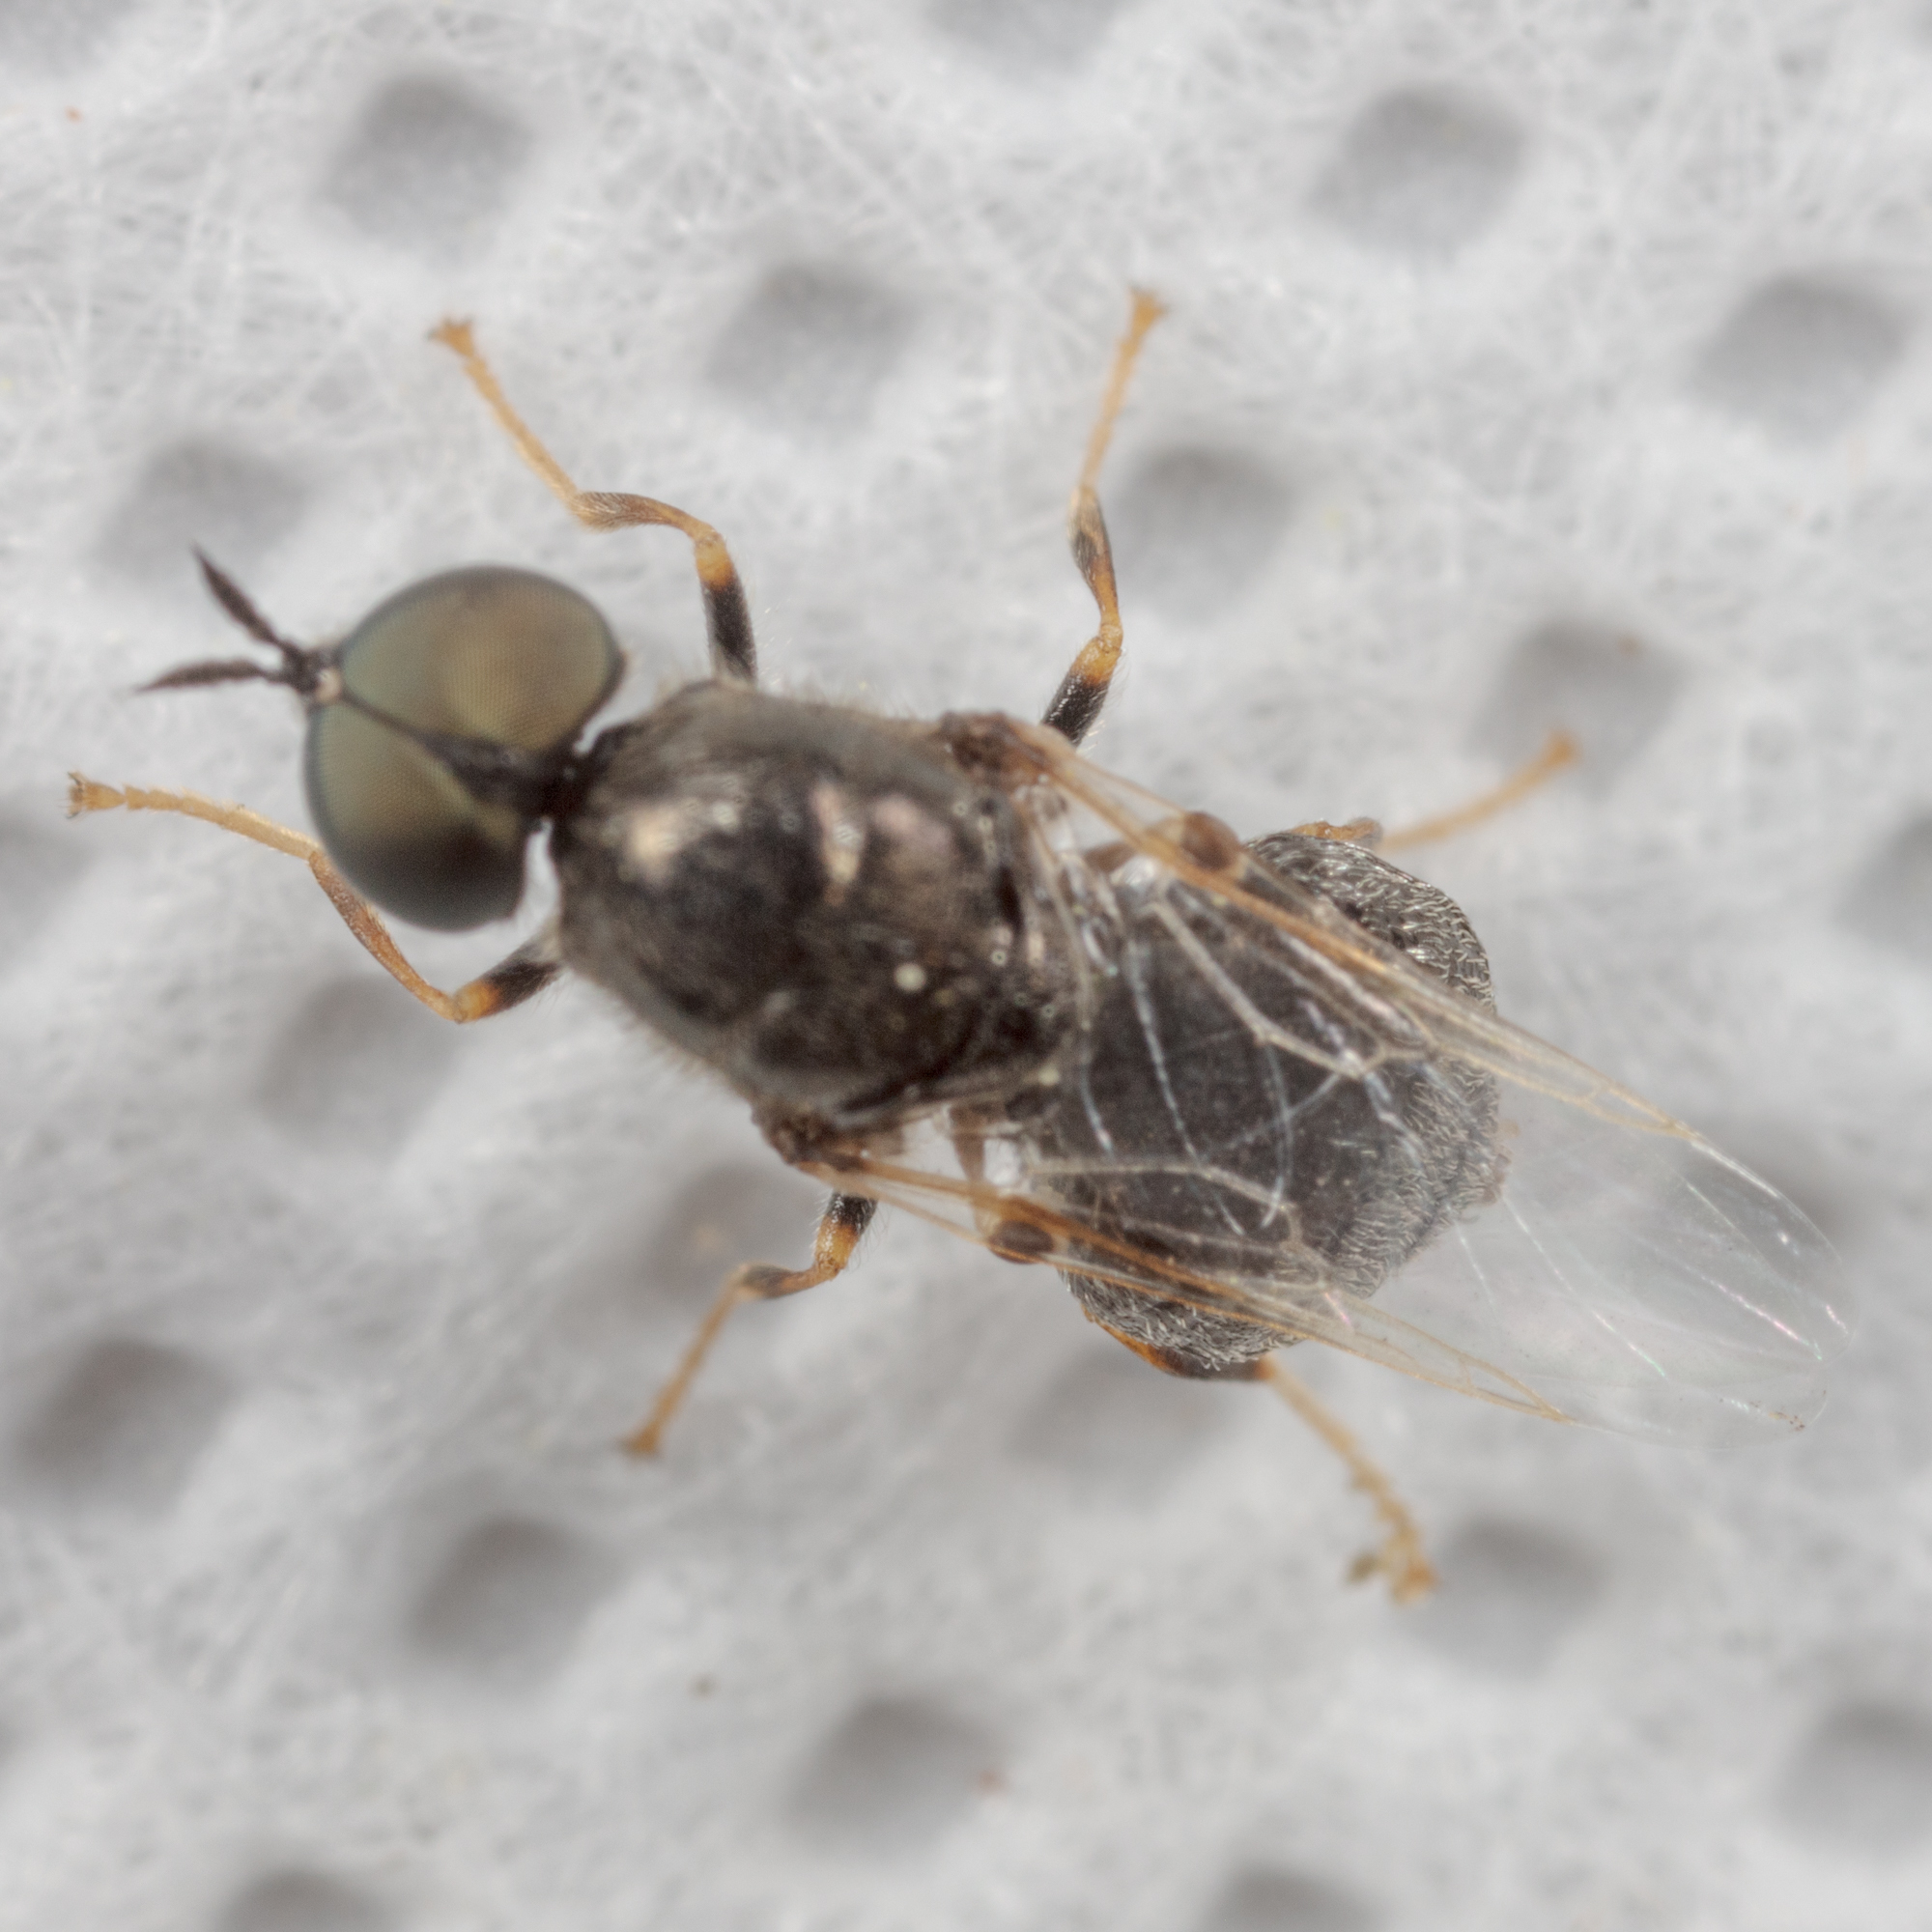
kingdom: Animalia
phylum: Arthropoda
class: Insecta
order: Diptera
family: Stratiomyidae
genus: Nemotelus
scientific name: Nemotelus bruesii
